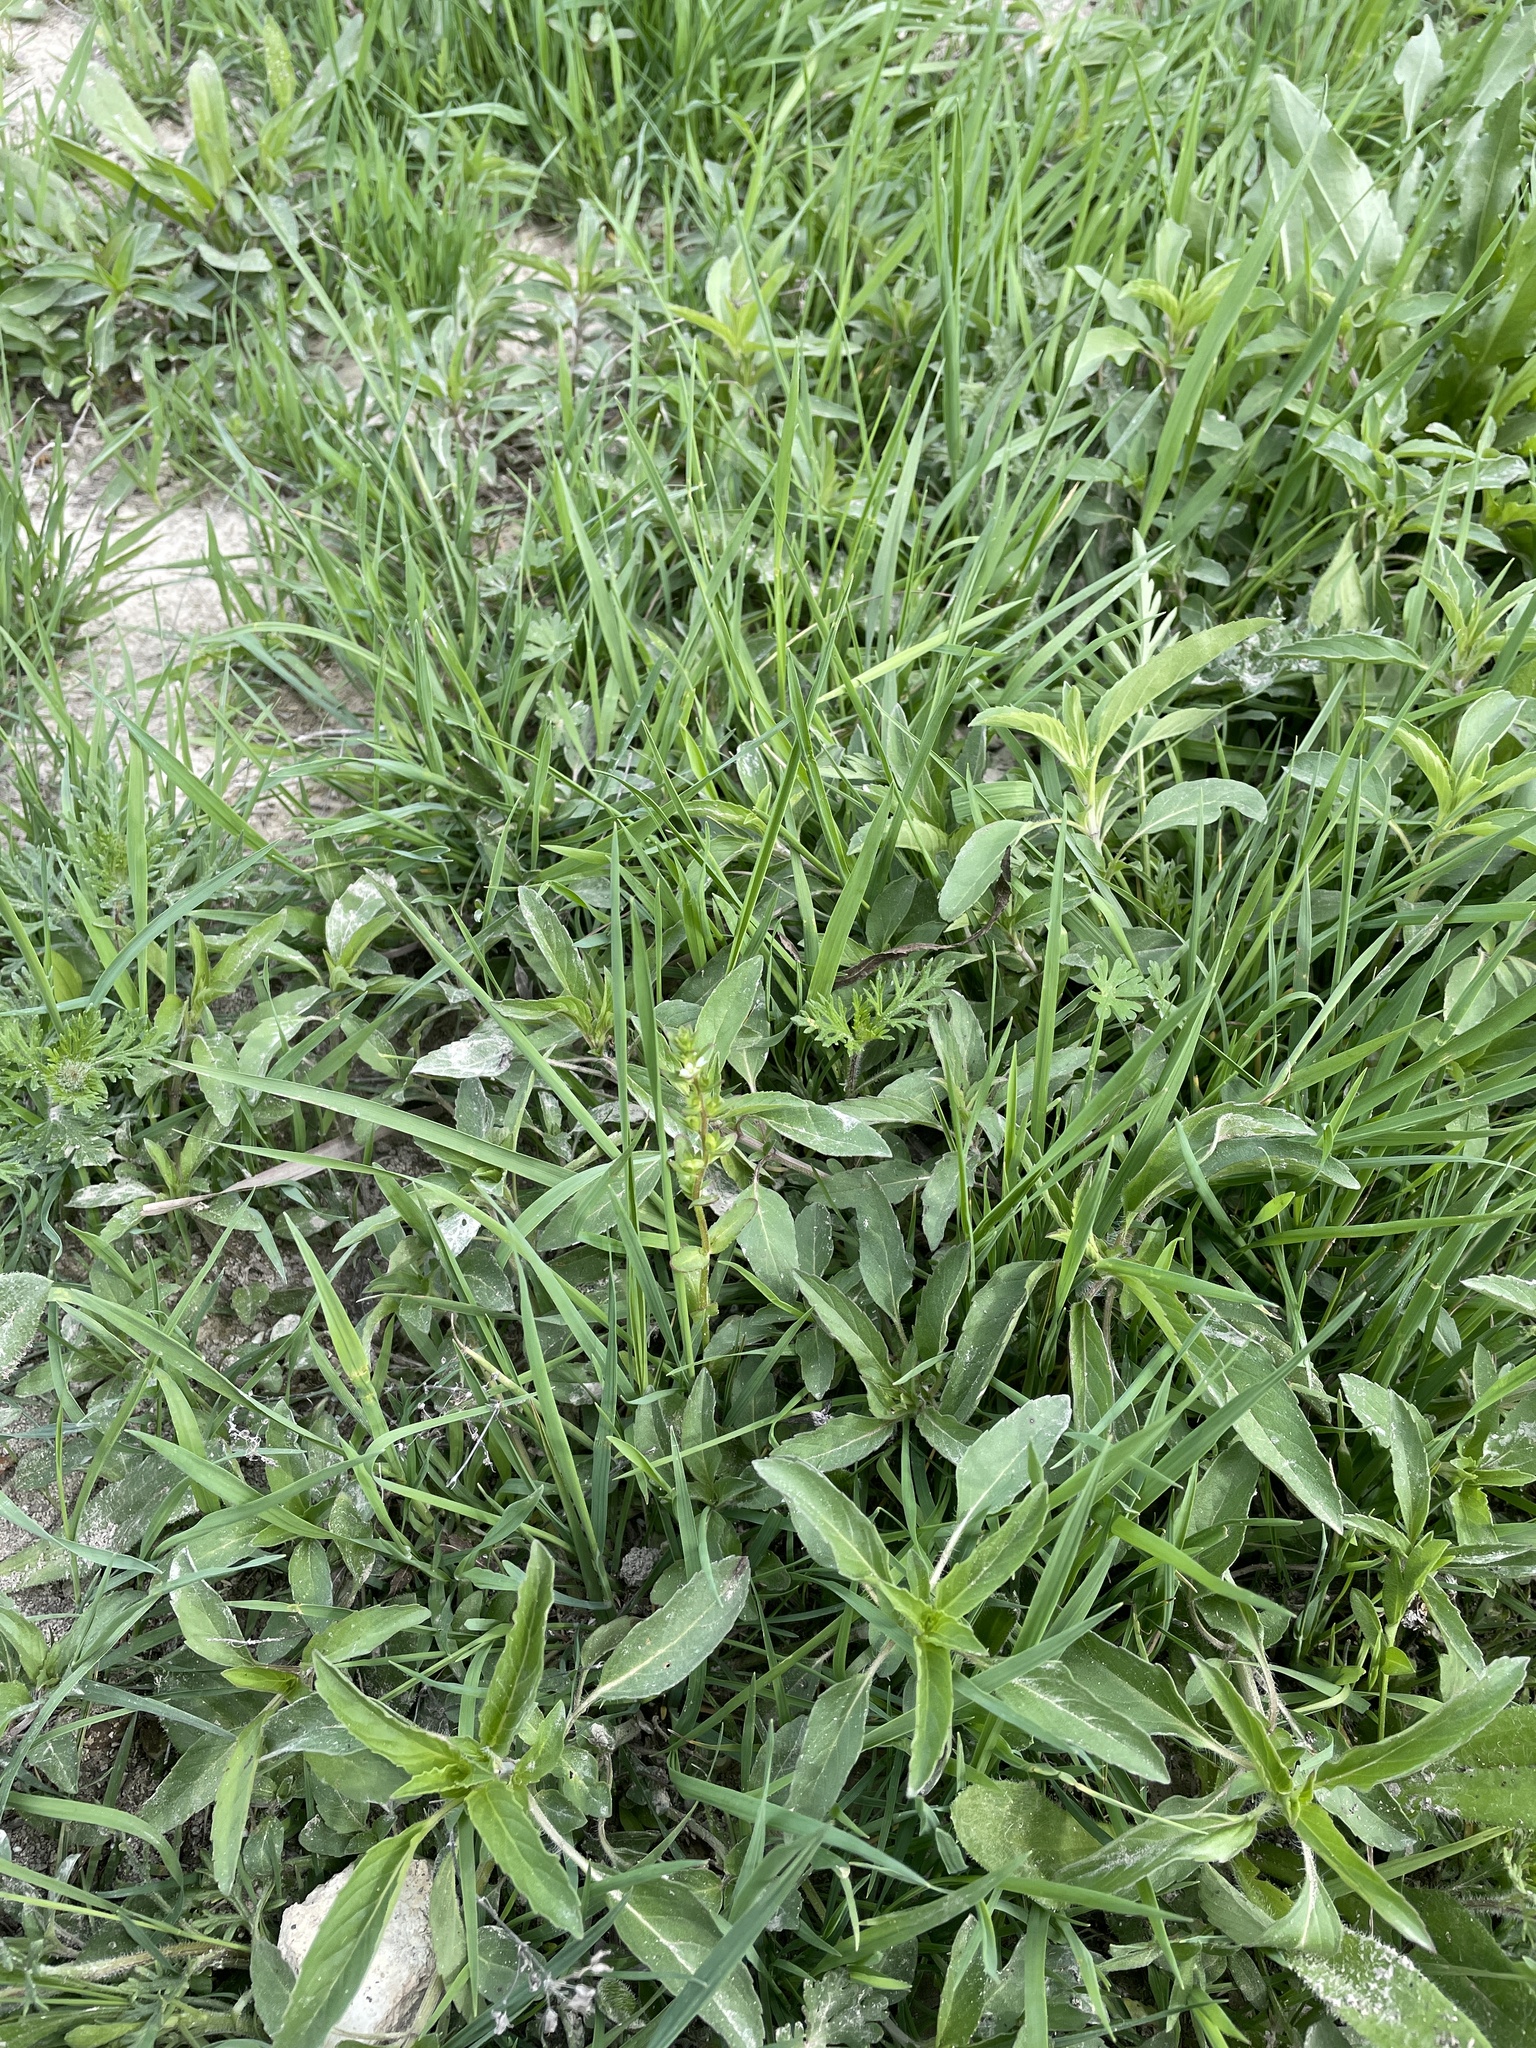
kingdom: Plantae
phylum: Tracheophyta
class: Magnoliopsida
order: Lamiales
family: Plantaginaceae
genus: Veronica
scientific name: Veronica peregrina
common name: Neckweed
